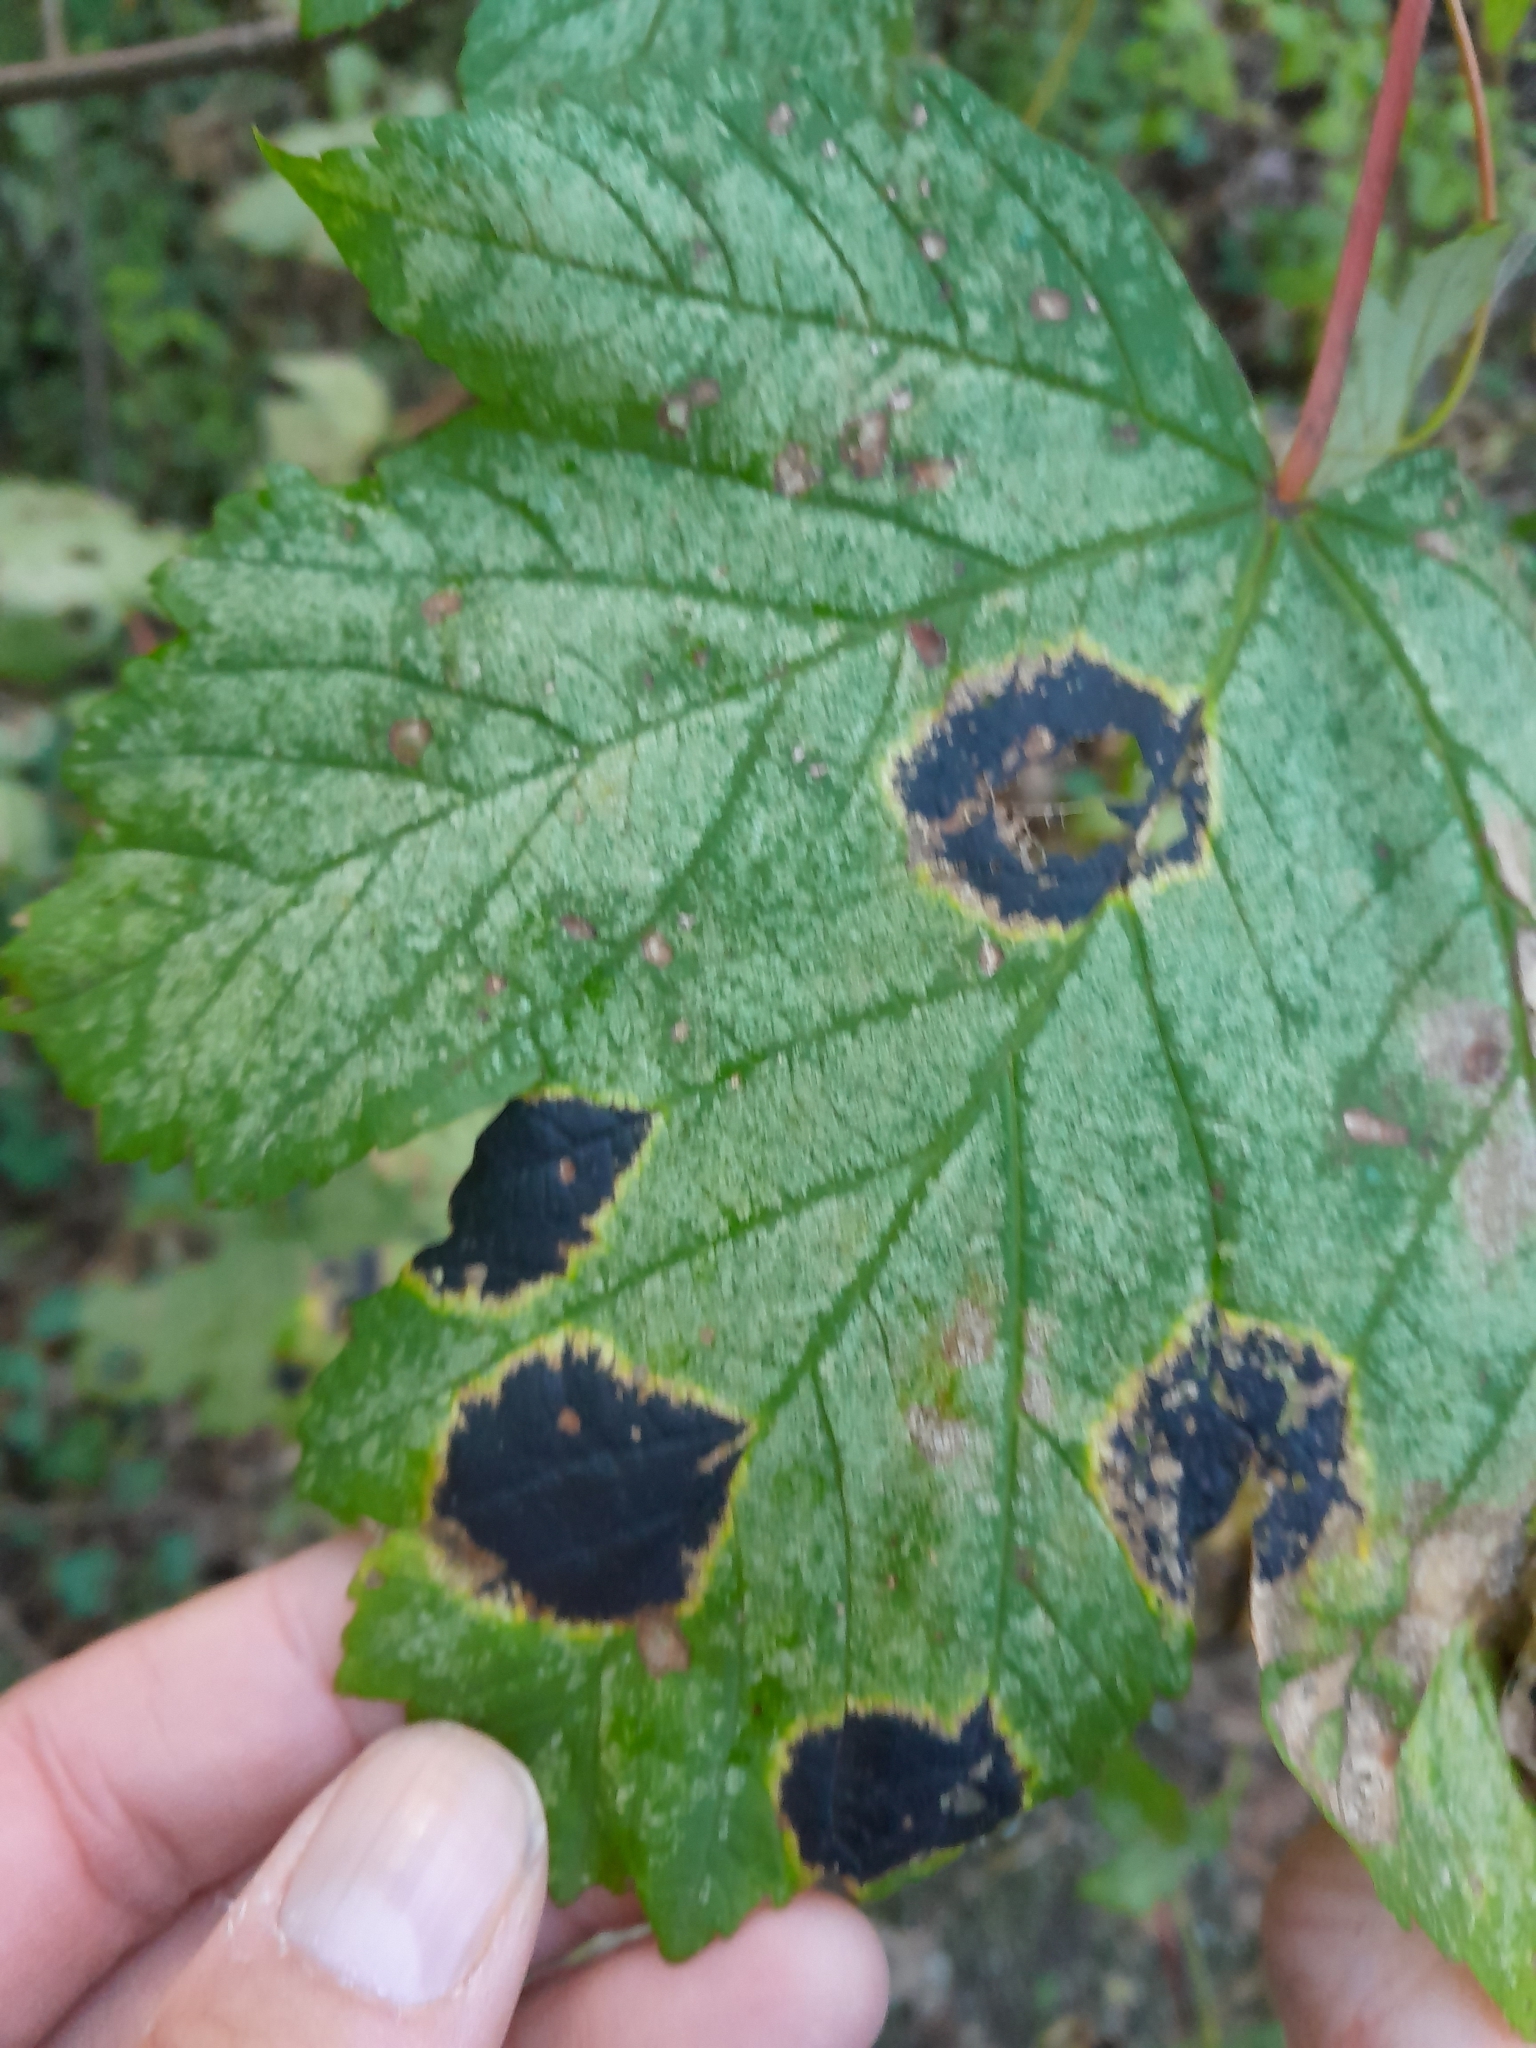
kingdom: Fungi
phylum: Ascomycota
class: Leotiomycetes
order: Rhytismatales
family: Rhytismataceae
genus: Rhytisma
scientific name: Rhytisma acerinum
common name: European tar spot
